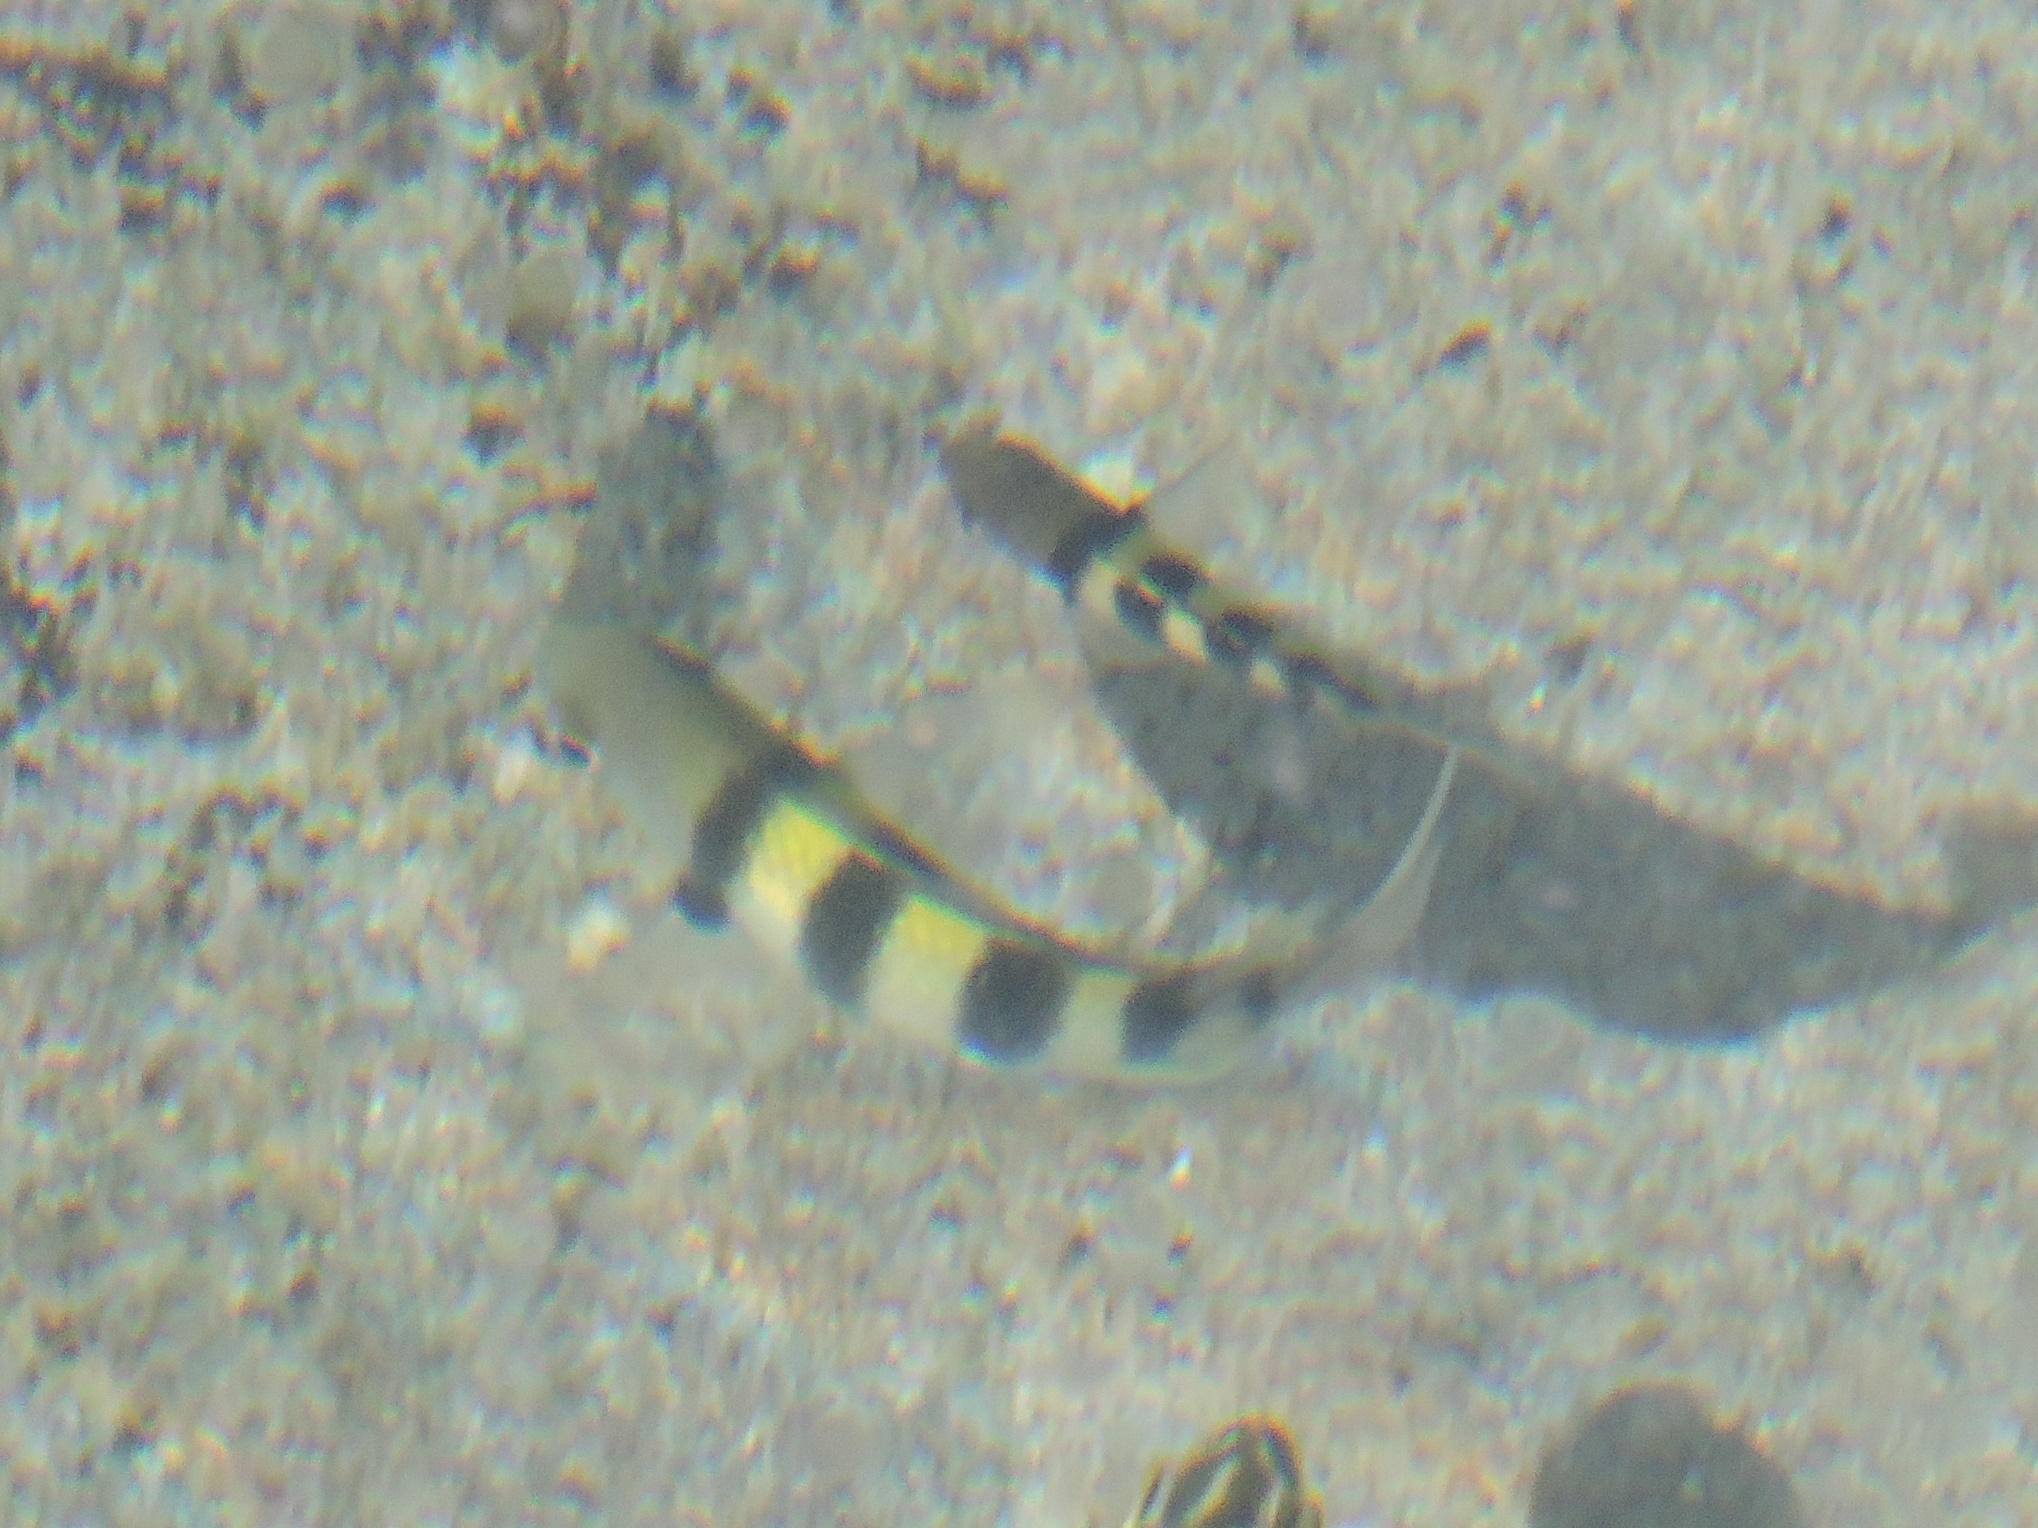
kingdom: Animalia
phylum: Chordata
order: Perciformes
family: Pomacentridae
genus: Abudefduf
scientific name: Abudefduf vaigiensis
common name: Indo-pacific sergeant
